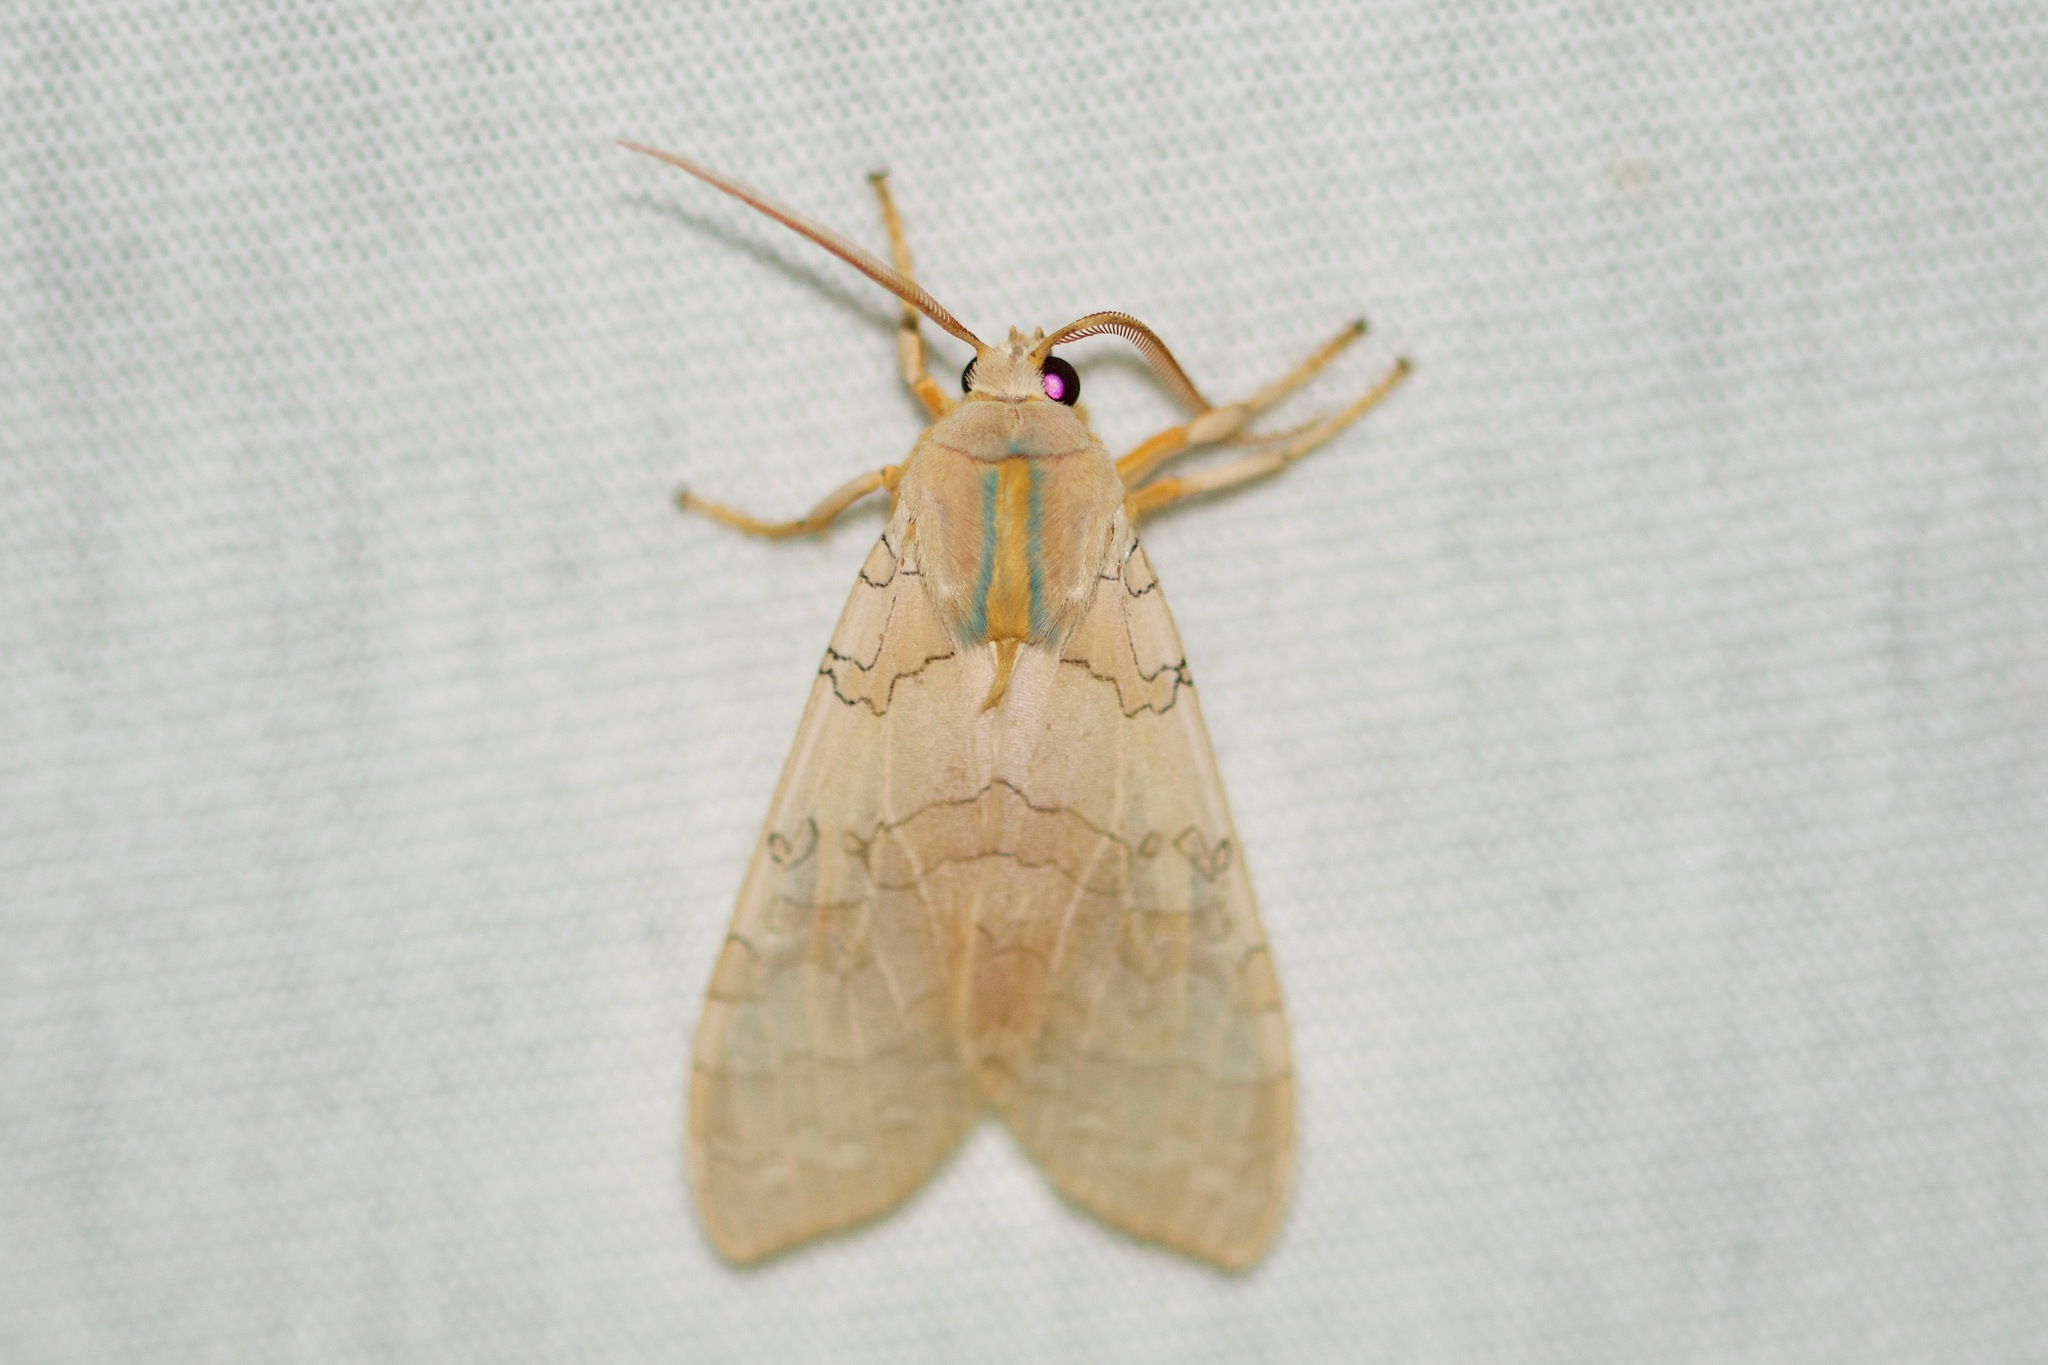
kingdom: Animalia
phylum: Arthropoda
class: Insecta
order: Lepidoptera
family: Erebidae
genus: Halysidota
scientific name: Halysidota tessellaris
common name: Banded tussock moth
